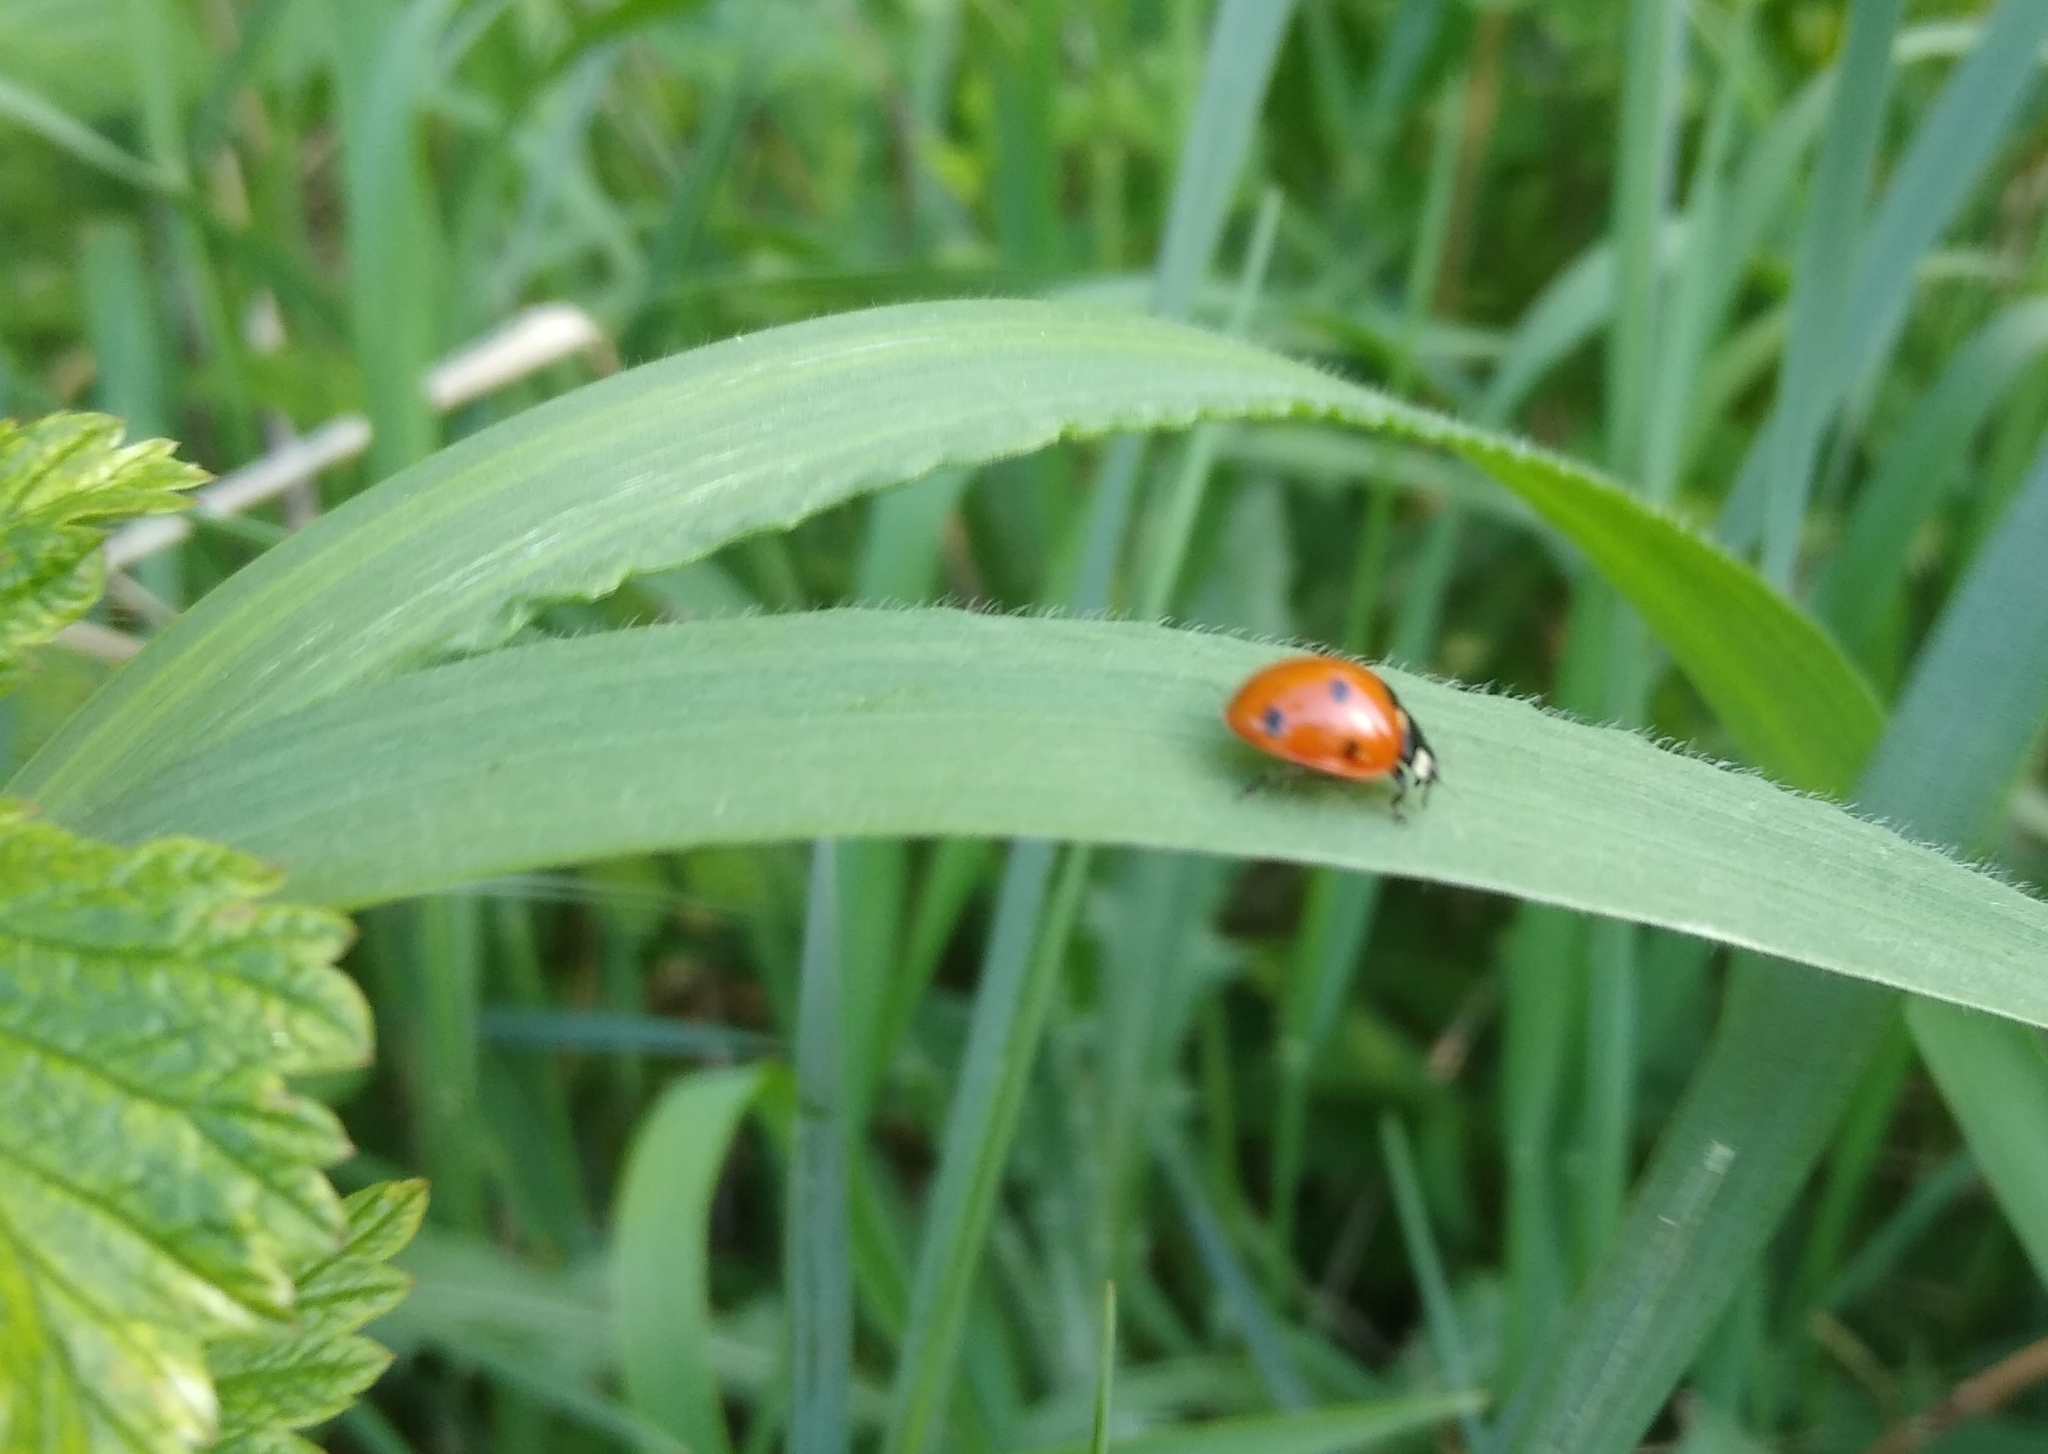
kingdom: Animalia
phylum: Arthropoda
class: Insecta
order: Coleoptera
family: Coccinellidae
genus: Coccinella
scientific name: Coccinella septempunctata
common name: Sevenspotted lady beetle
